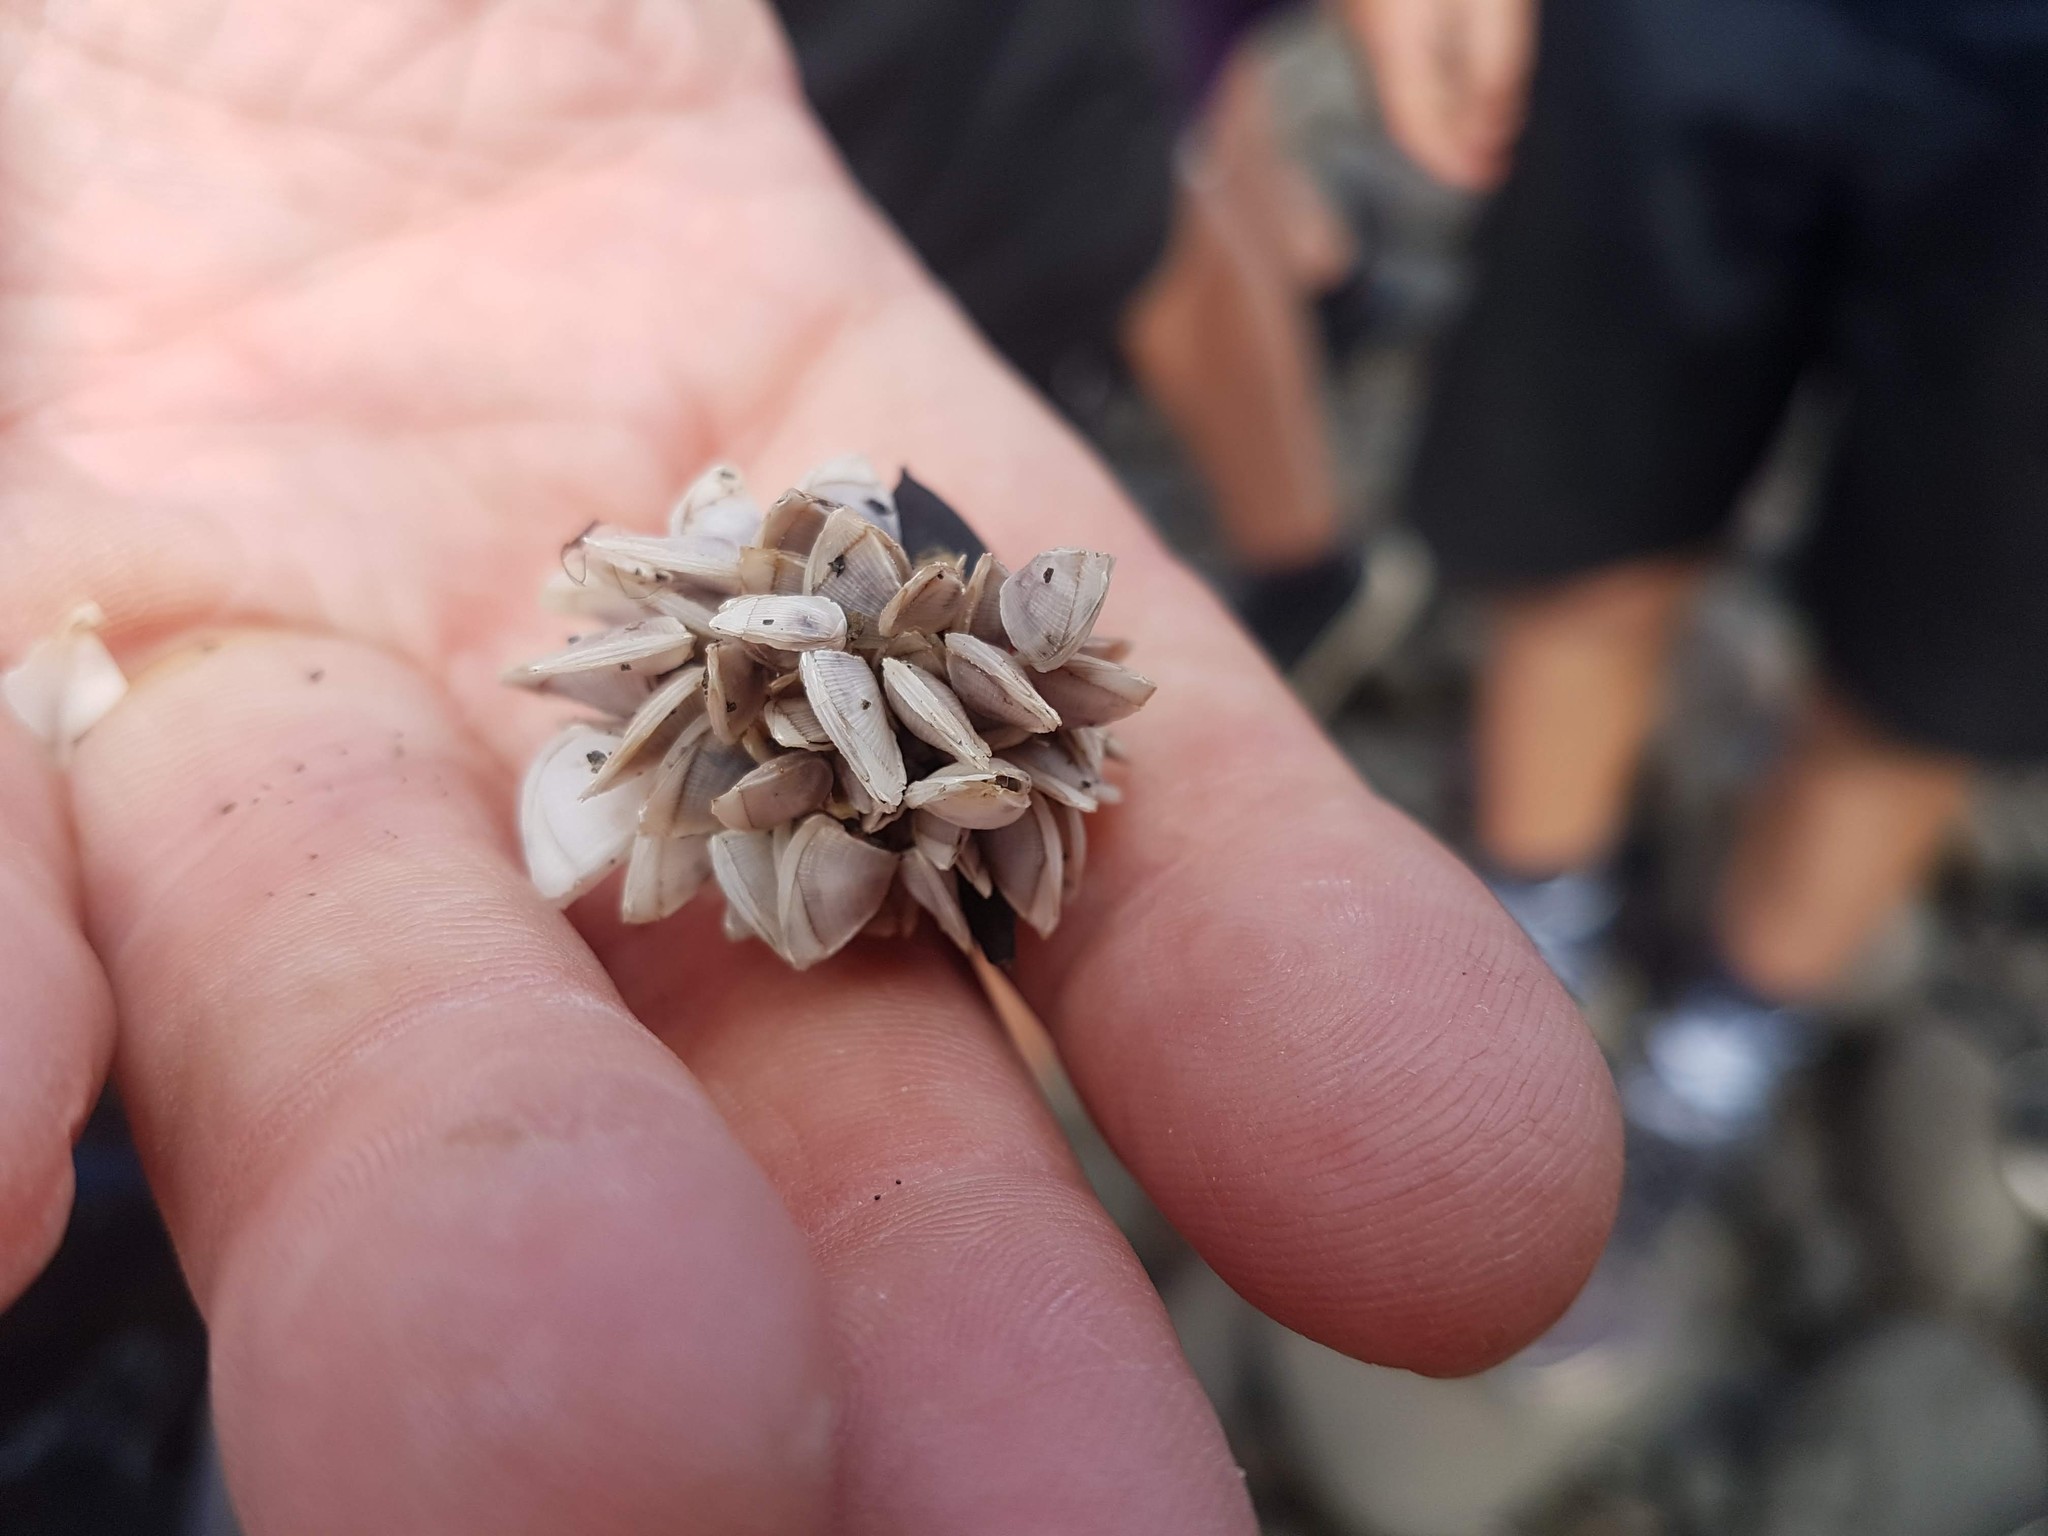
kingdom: Animalia
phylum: Arthropoda
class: Maxillopoda
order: Pedunculata
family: Lepadidae
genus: Lepas
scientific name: Lepas pectinata
